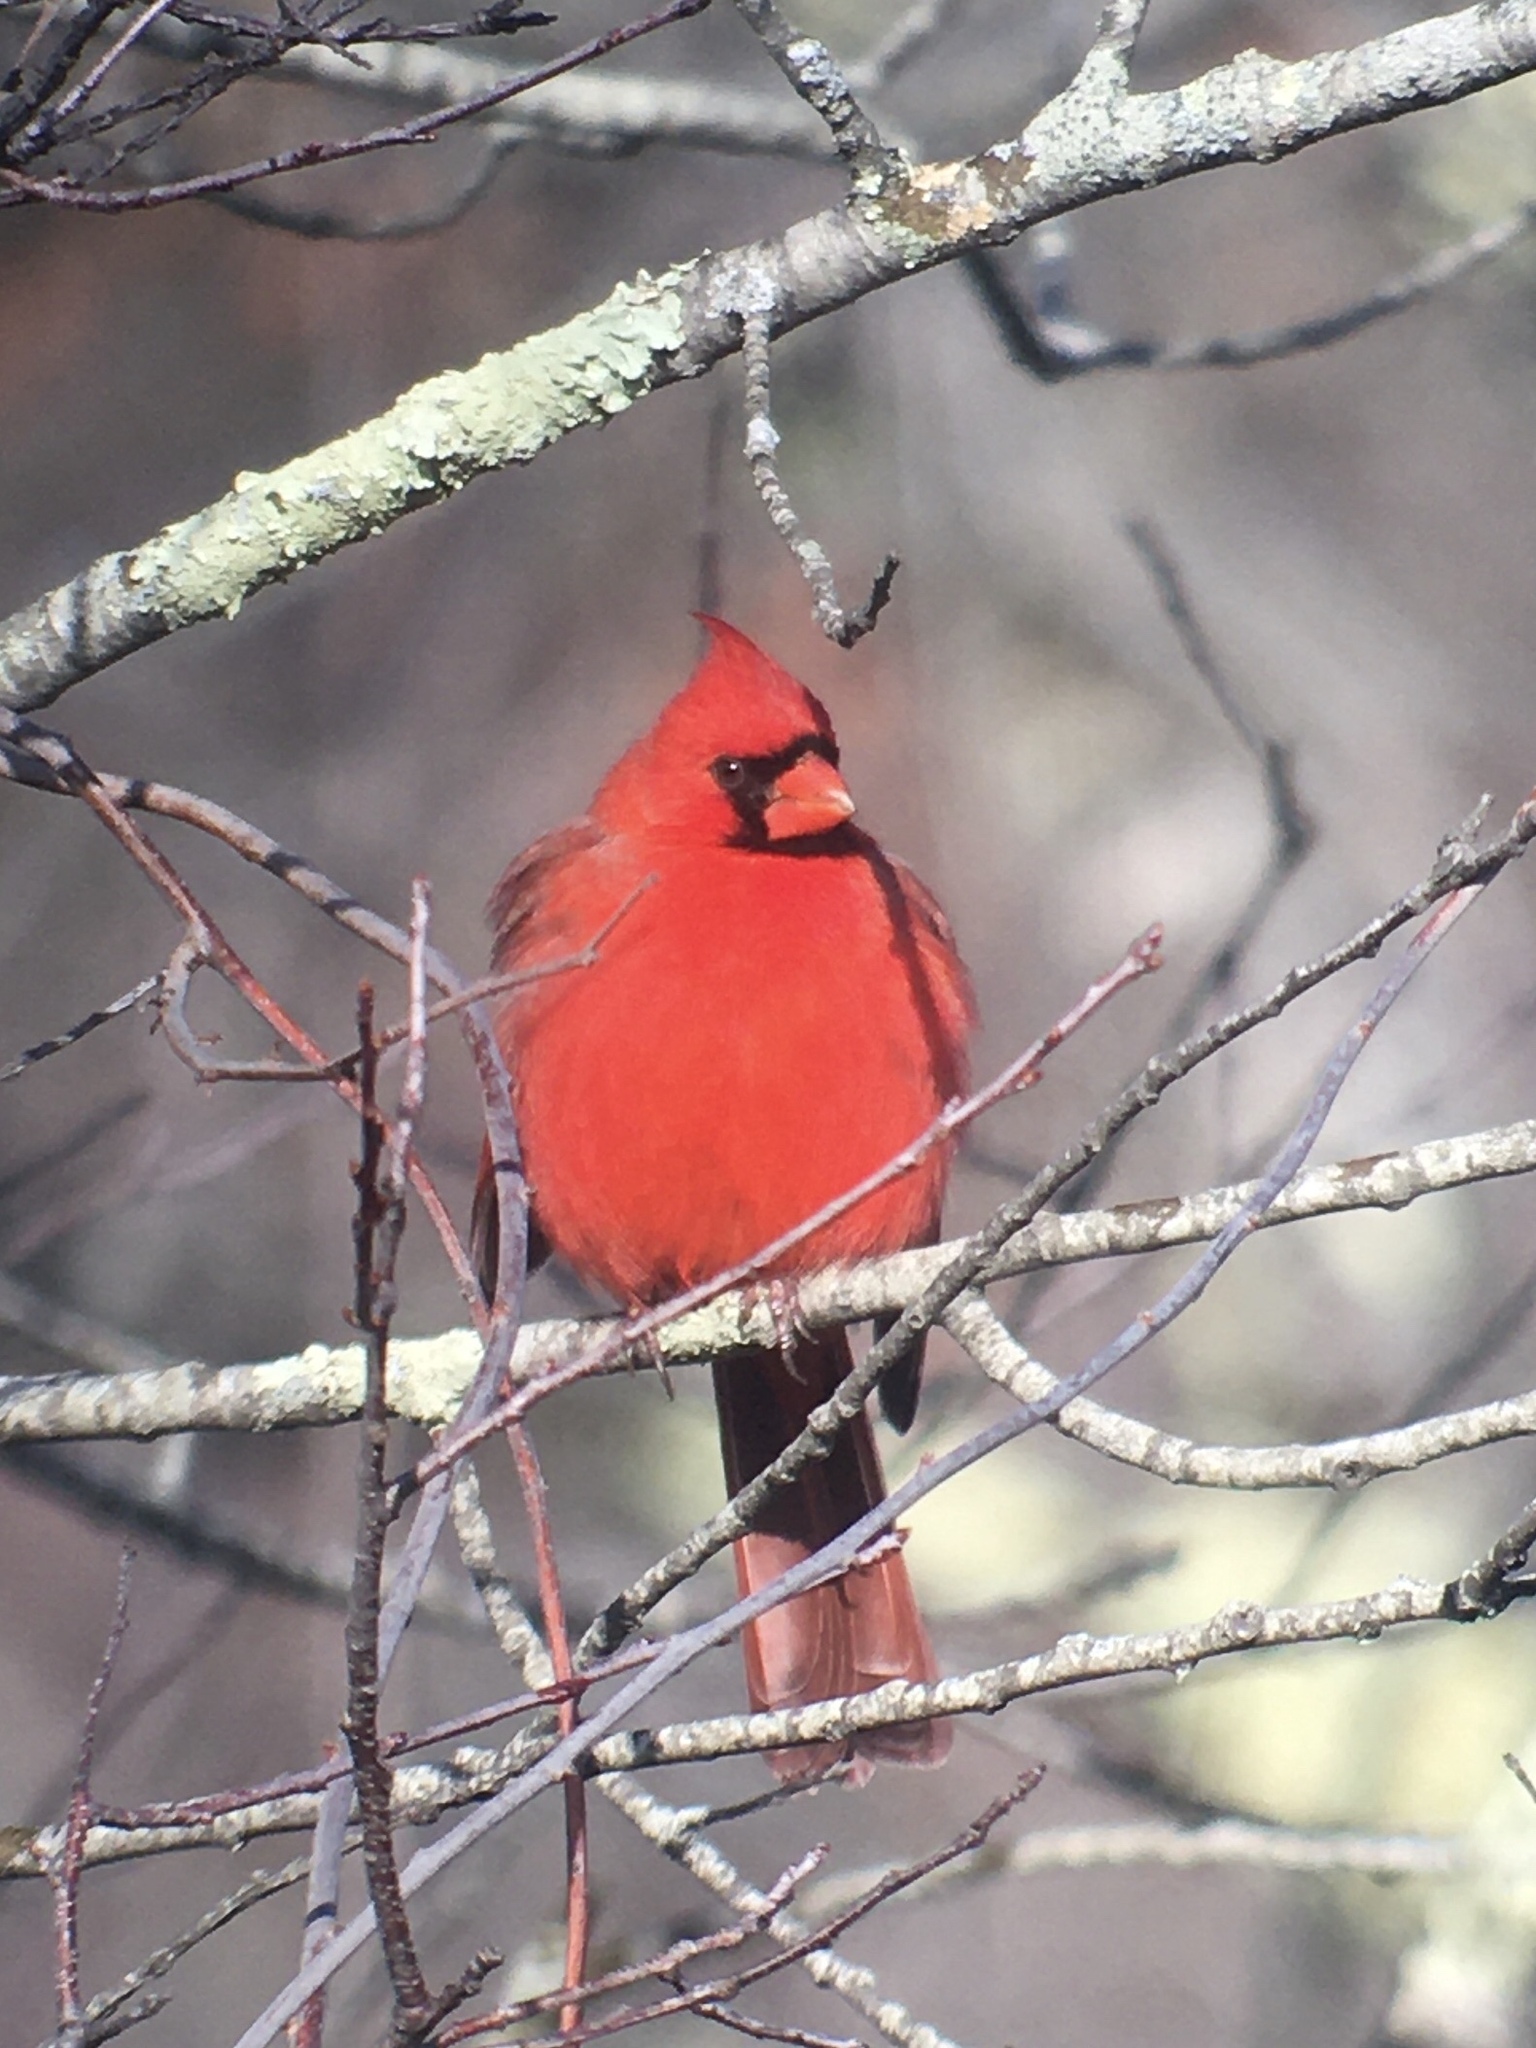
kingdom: Animalia
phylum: Chordata
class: Aves
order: Passeriformes
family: Cardinalidae
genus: Cardinalis
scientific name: Cardinalis cardinalis
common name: Northern cardinal
